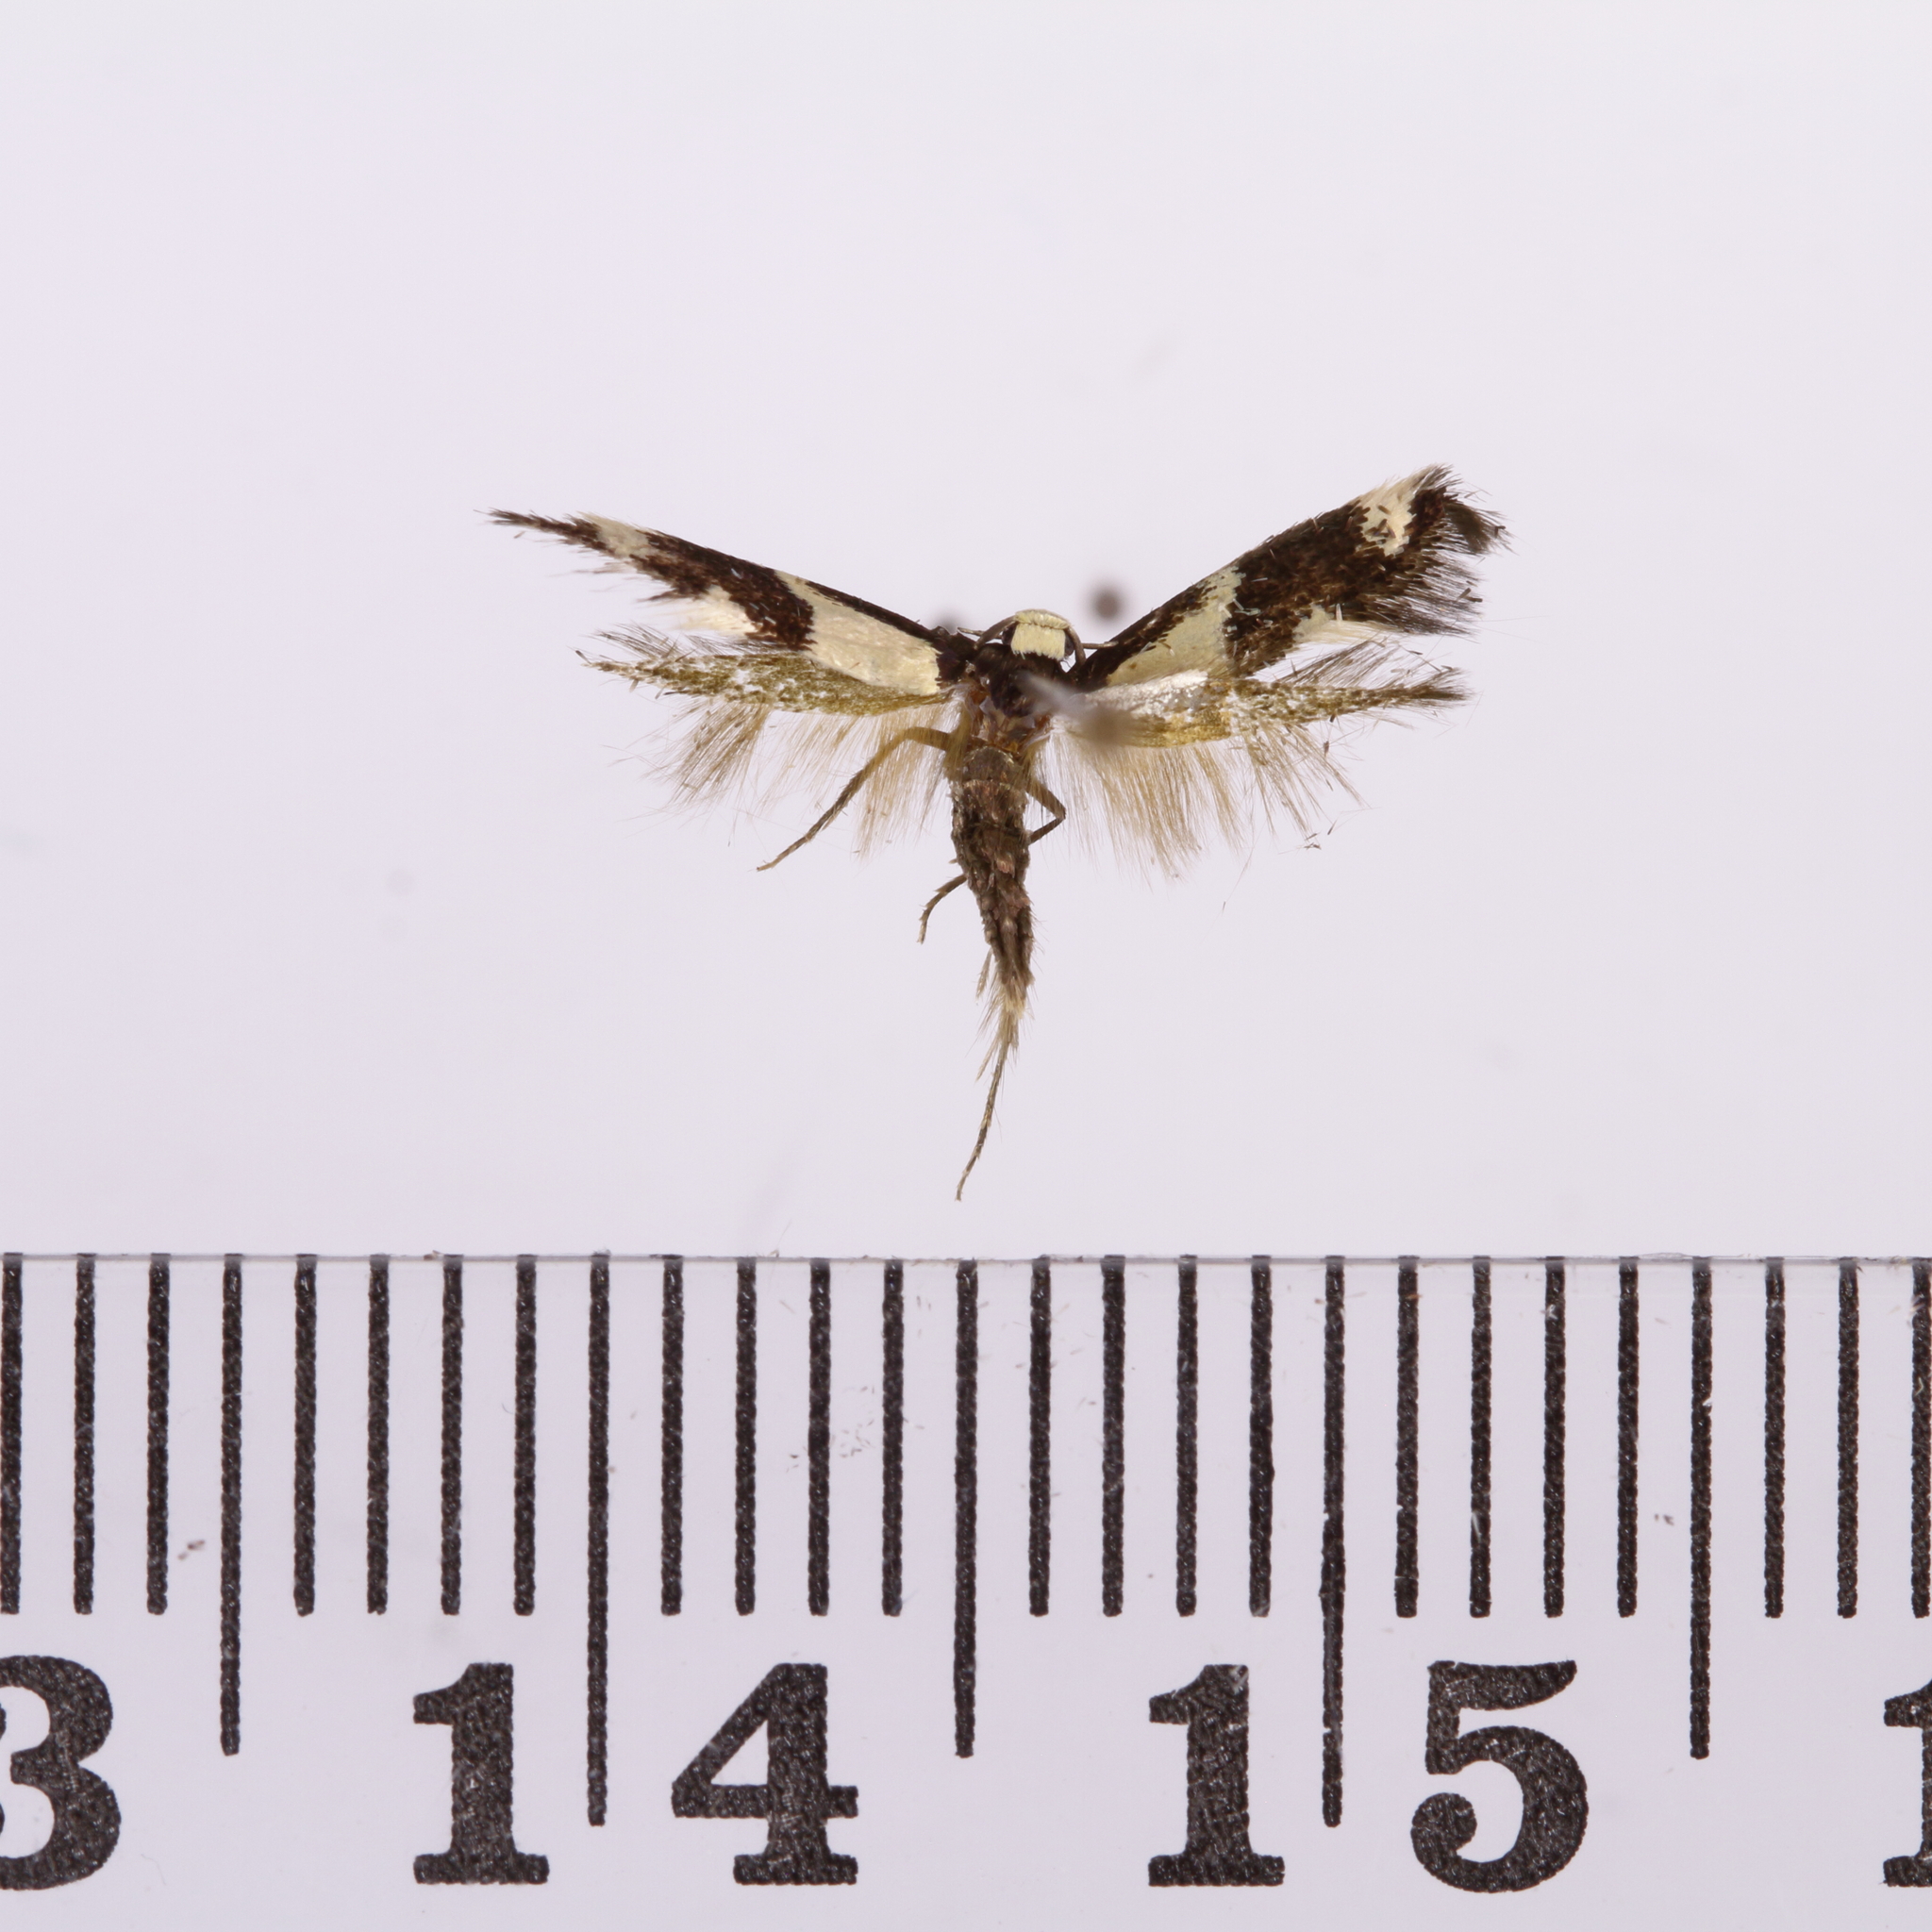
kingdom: Animalia
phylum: Arthropoda
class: Insecta
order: Lepidoptera
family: Tineidae
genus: Opogona
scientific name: Opogona comptella
